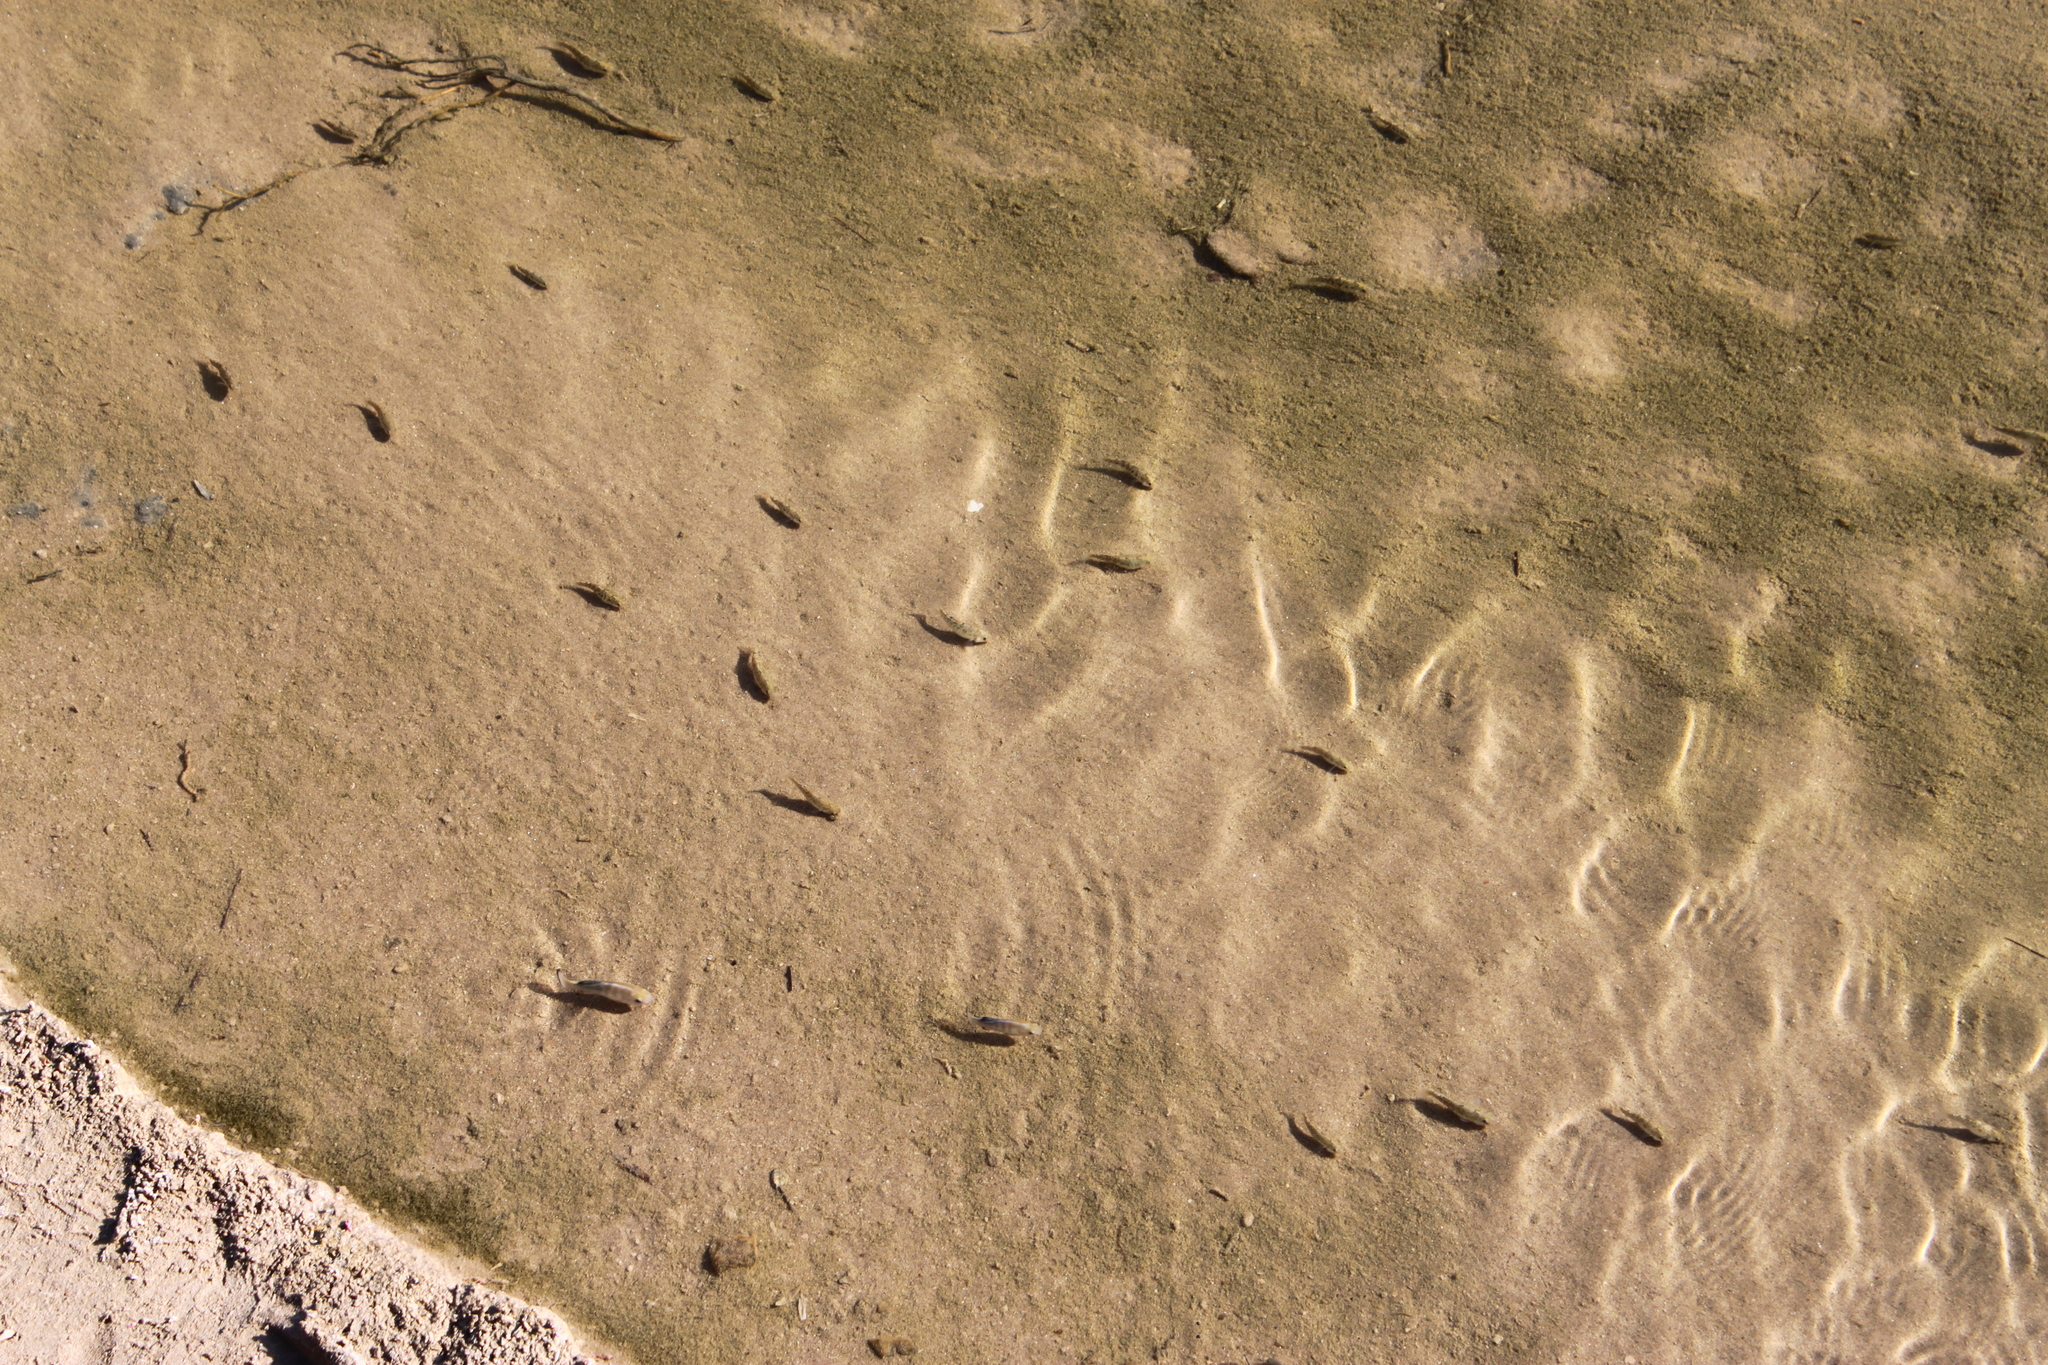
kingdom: Animalia
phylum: Chordata
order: Cyprinodontiformes
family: Cyprinodontidae
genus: Cyprinodon
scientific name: Cyprinodon salinus
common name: Cottonball marsh pupfish
